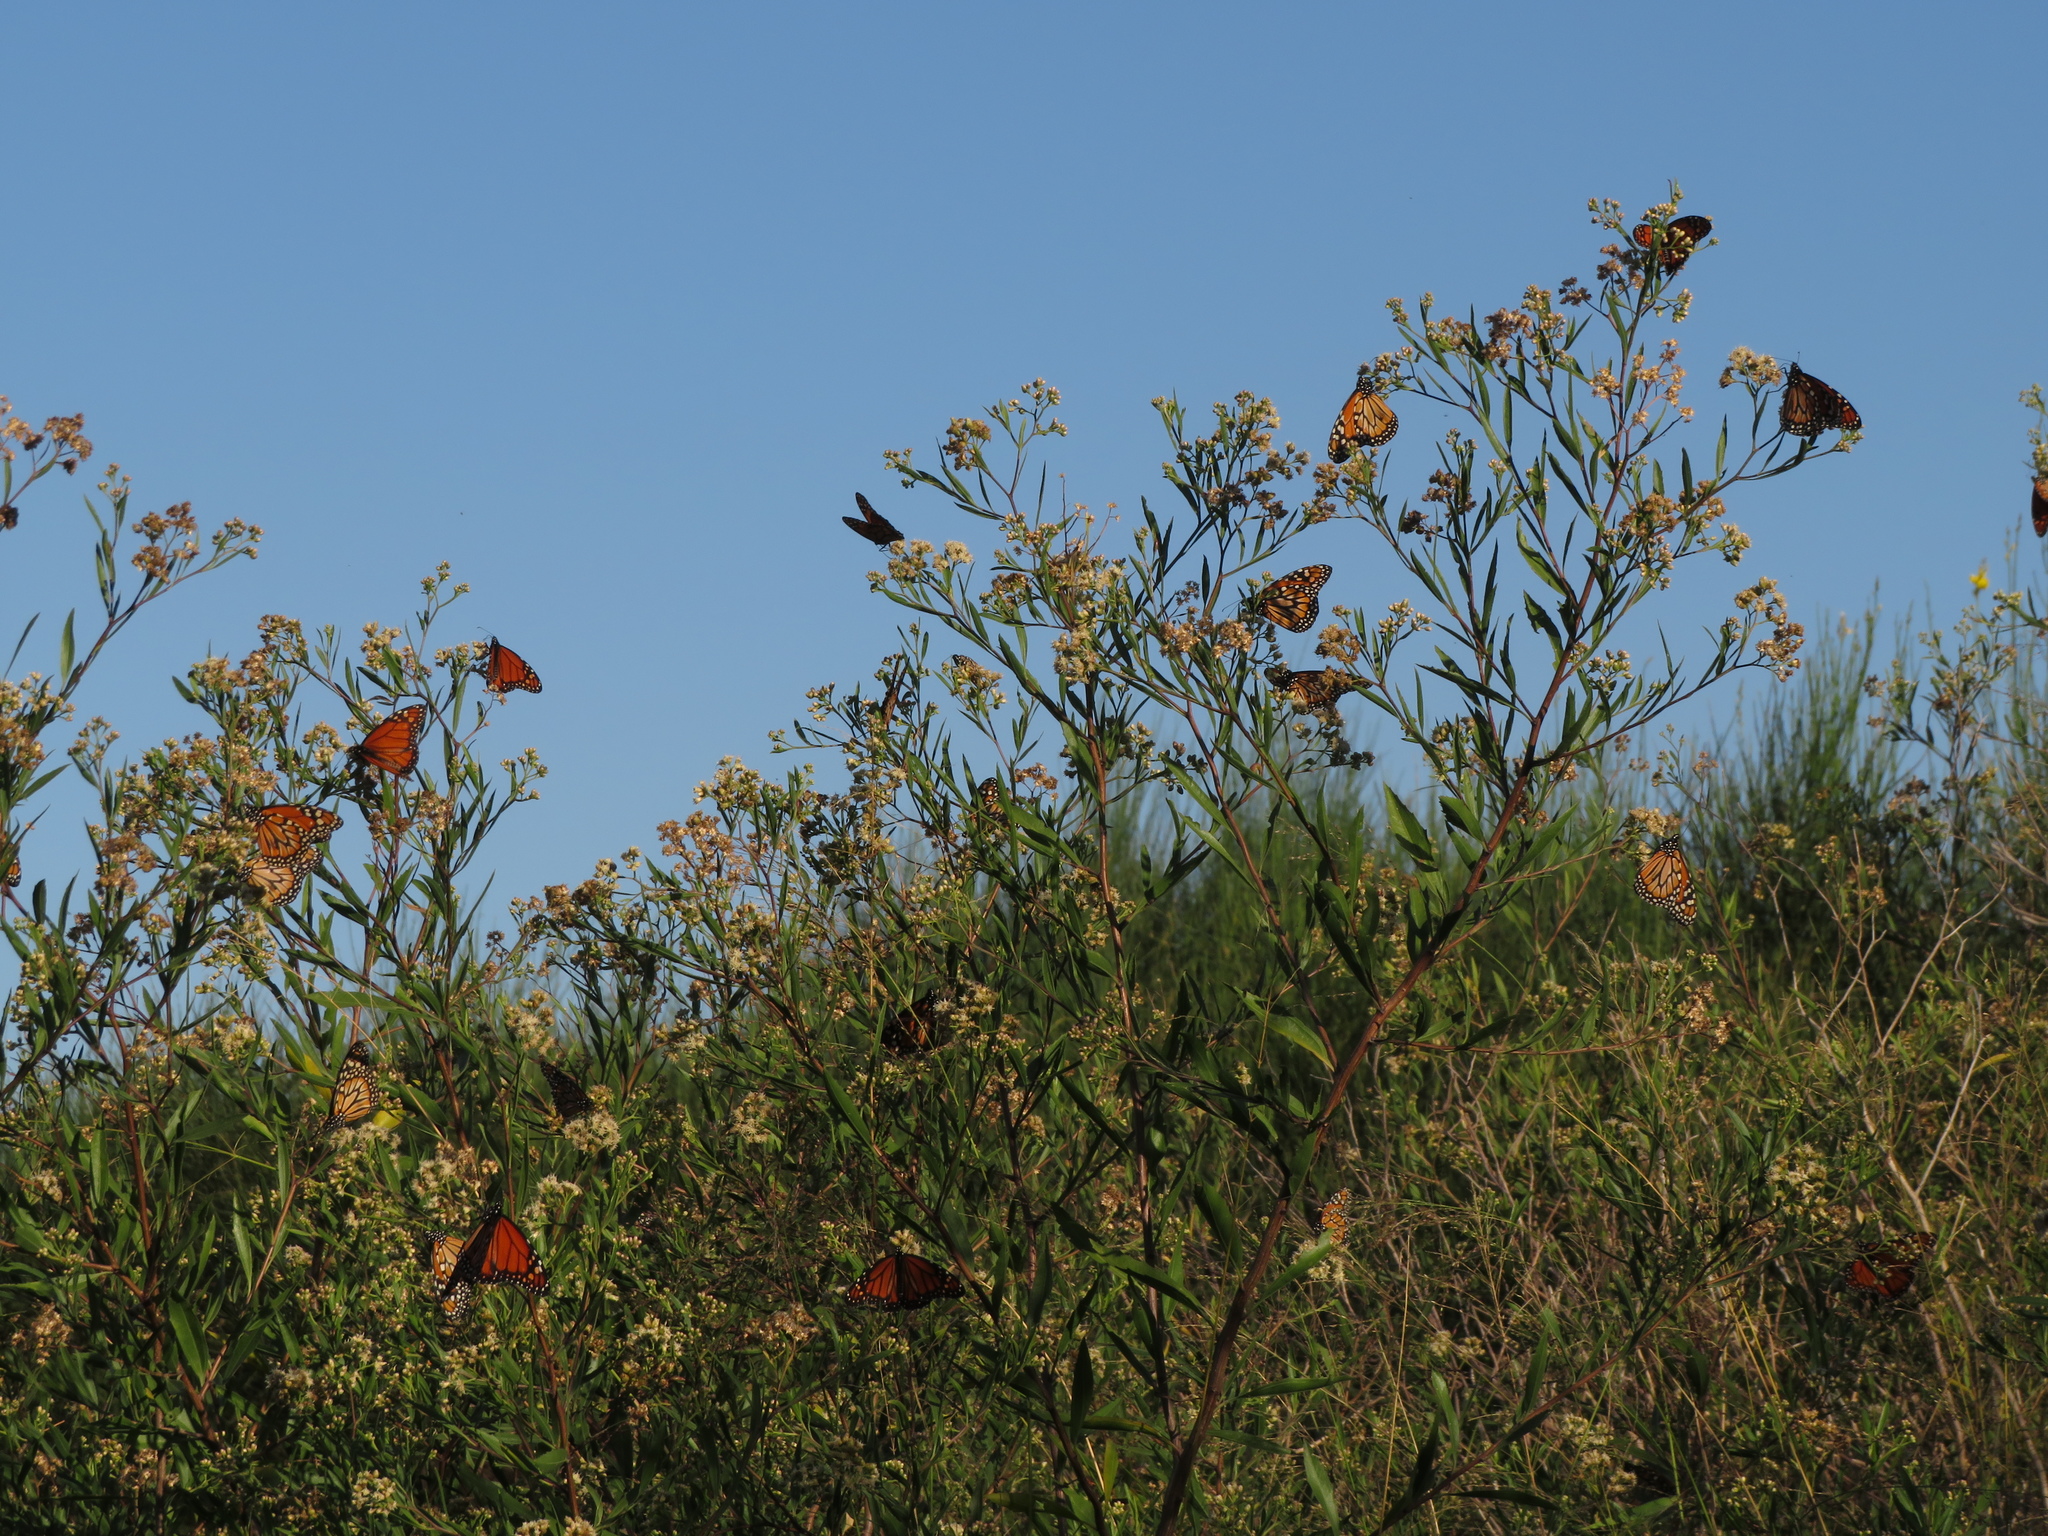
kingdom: Animalia
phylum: Arthropoda
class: Insecta
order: Lepidoptera
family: Nymphalidae
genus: Danaus
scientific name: Danaus erippus
